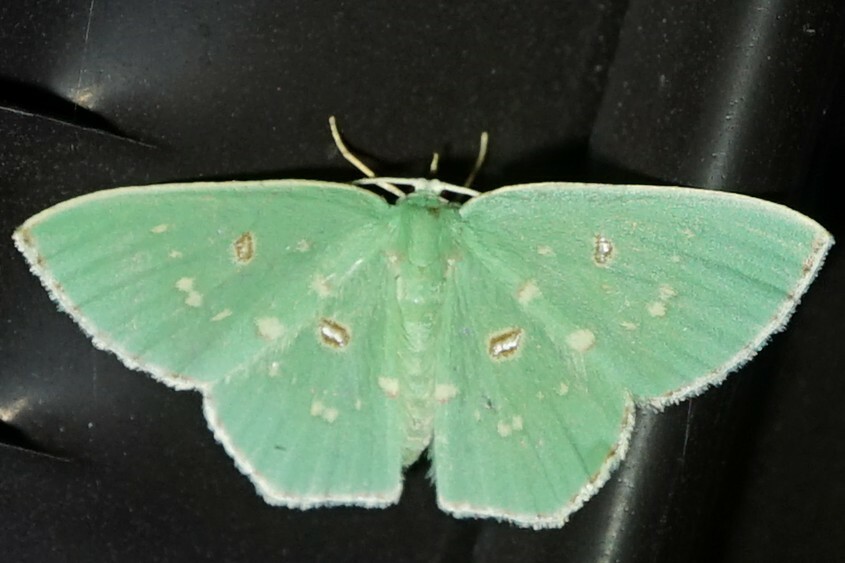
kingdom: Animalia
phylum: Arthropoda
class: Insecta
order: Lepidoptera
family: Geometridae
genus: Comostola
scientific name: Comostola subtiliaria
